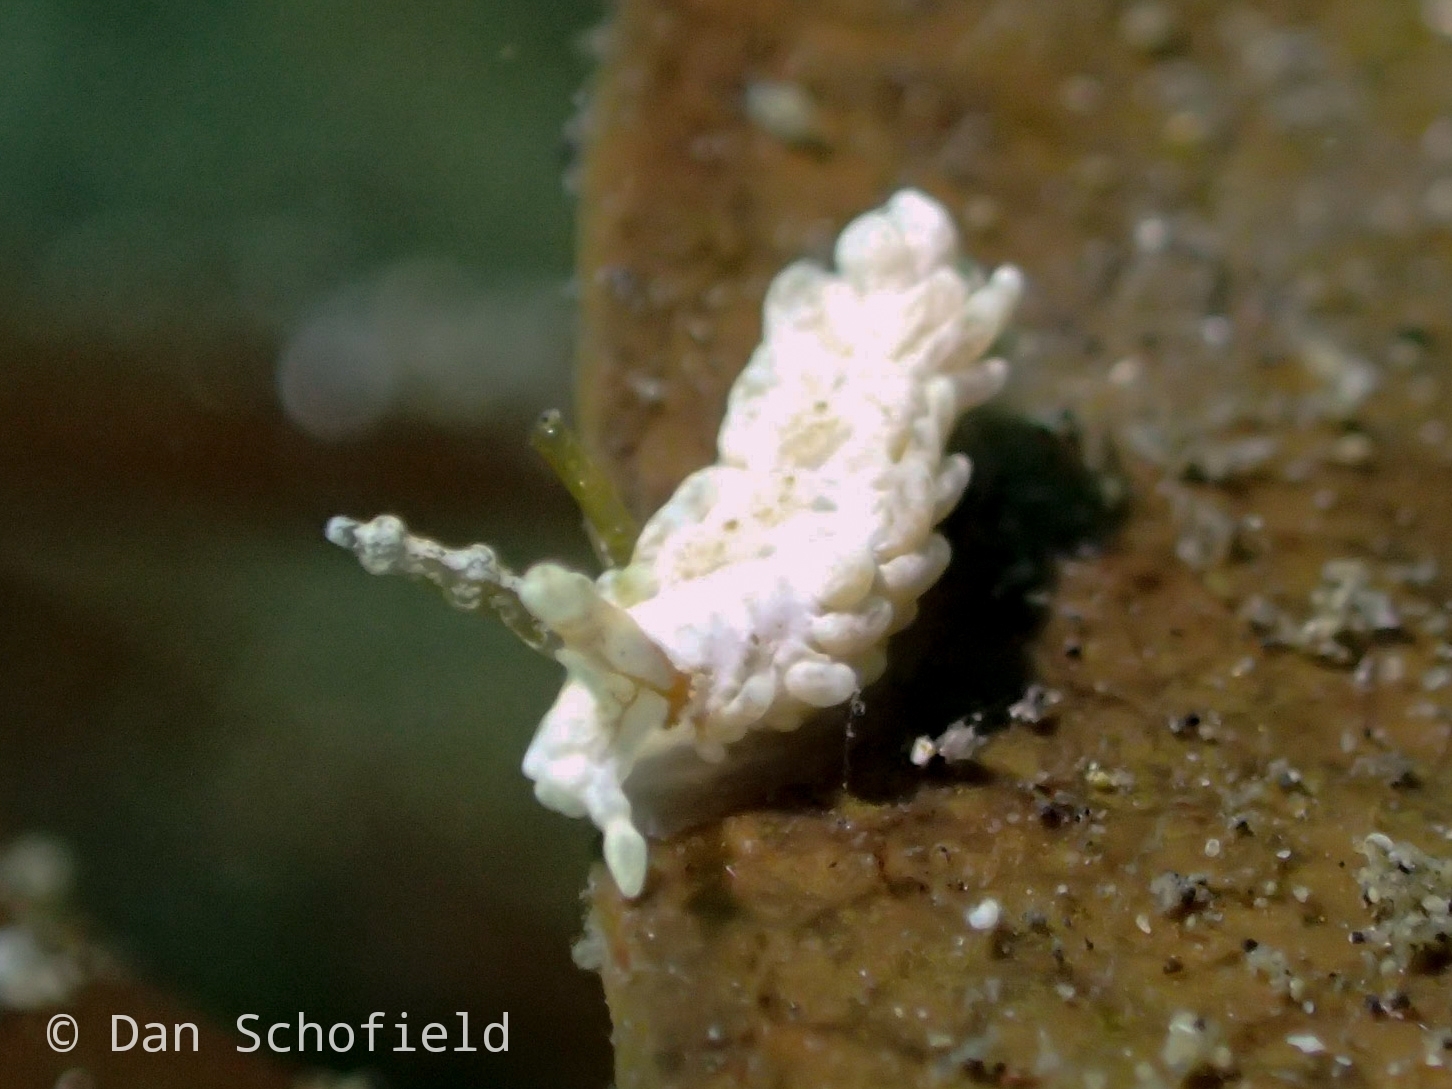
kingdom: Animalia
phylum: Mollusca
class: Gastropoda
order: Nudibranchia
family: Aeolidiidae
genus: Bulbaeolidia
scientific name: Bulbaeolidia alba
